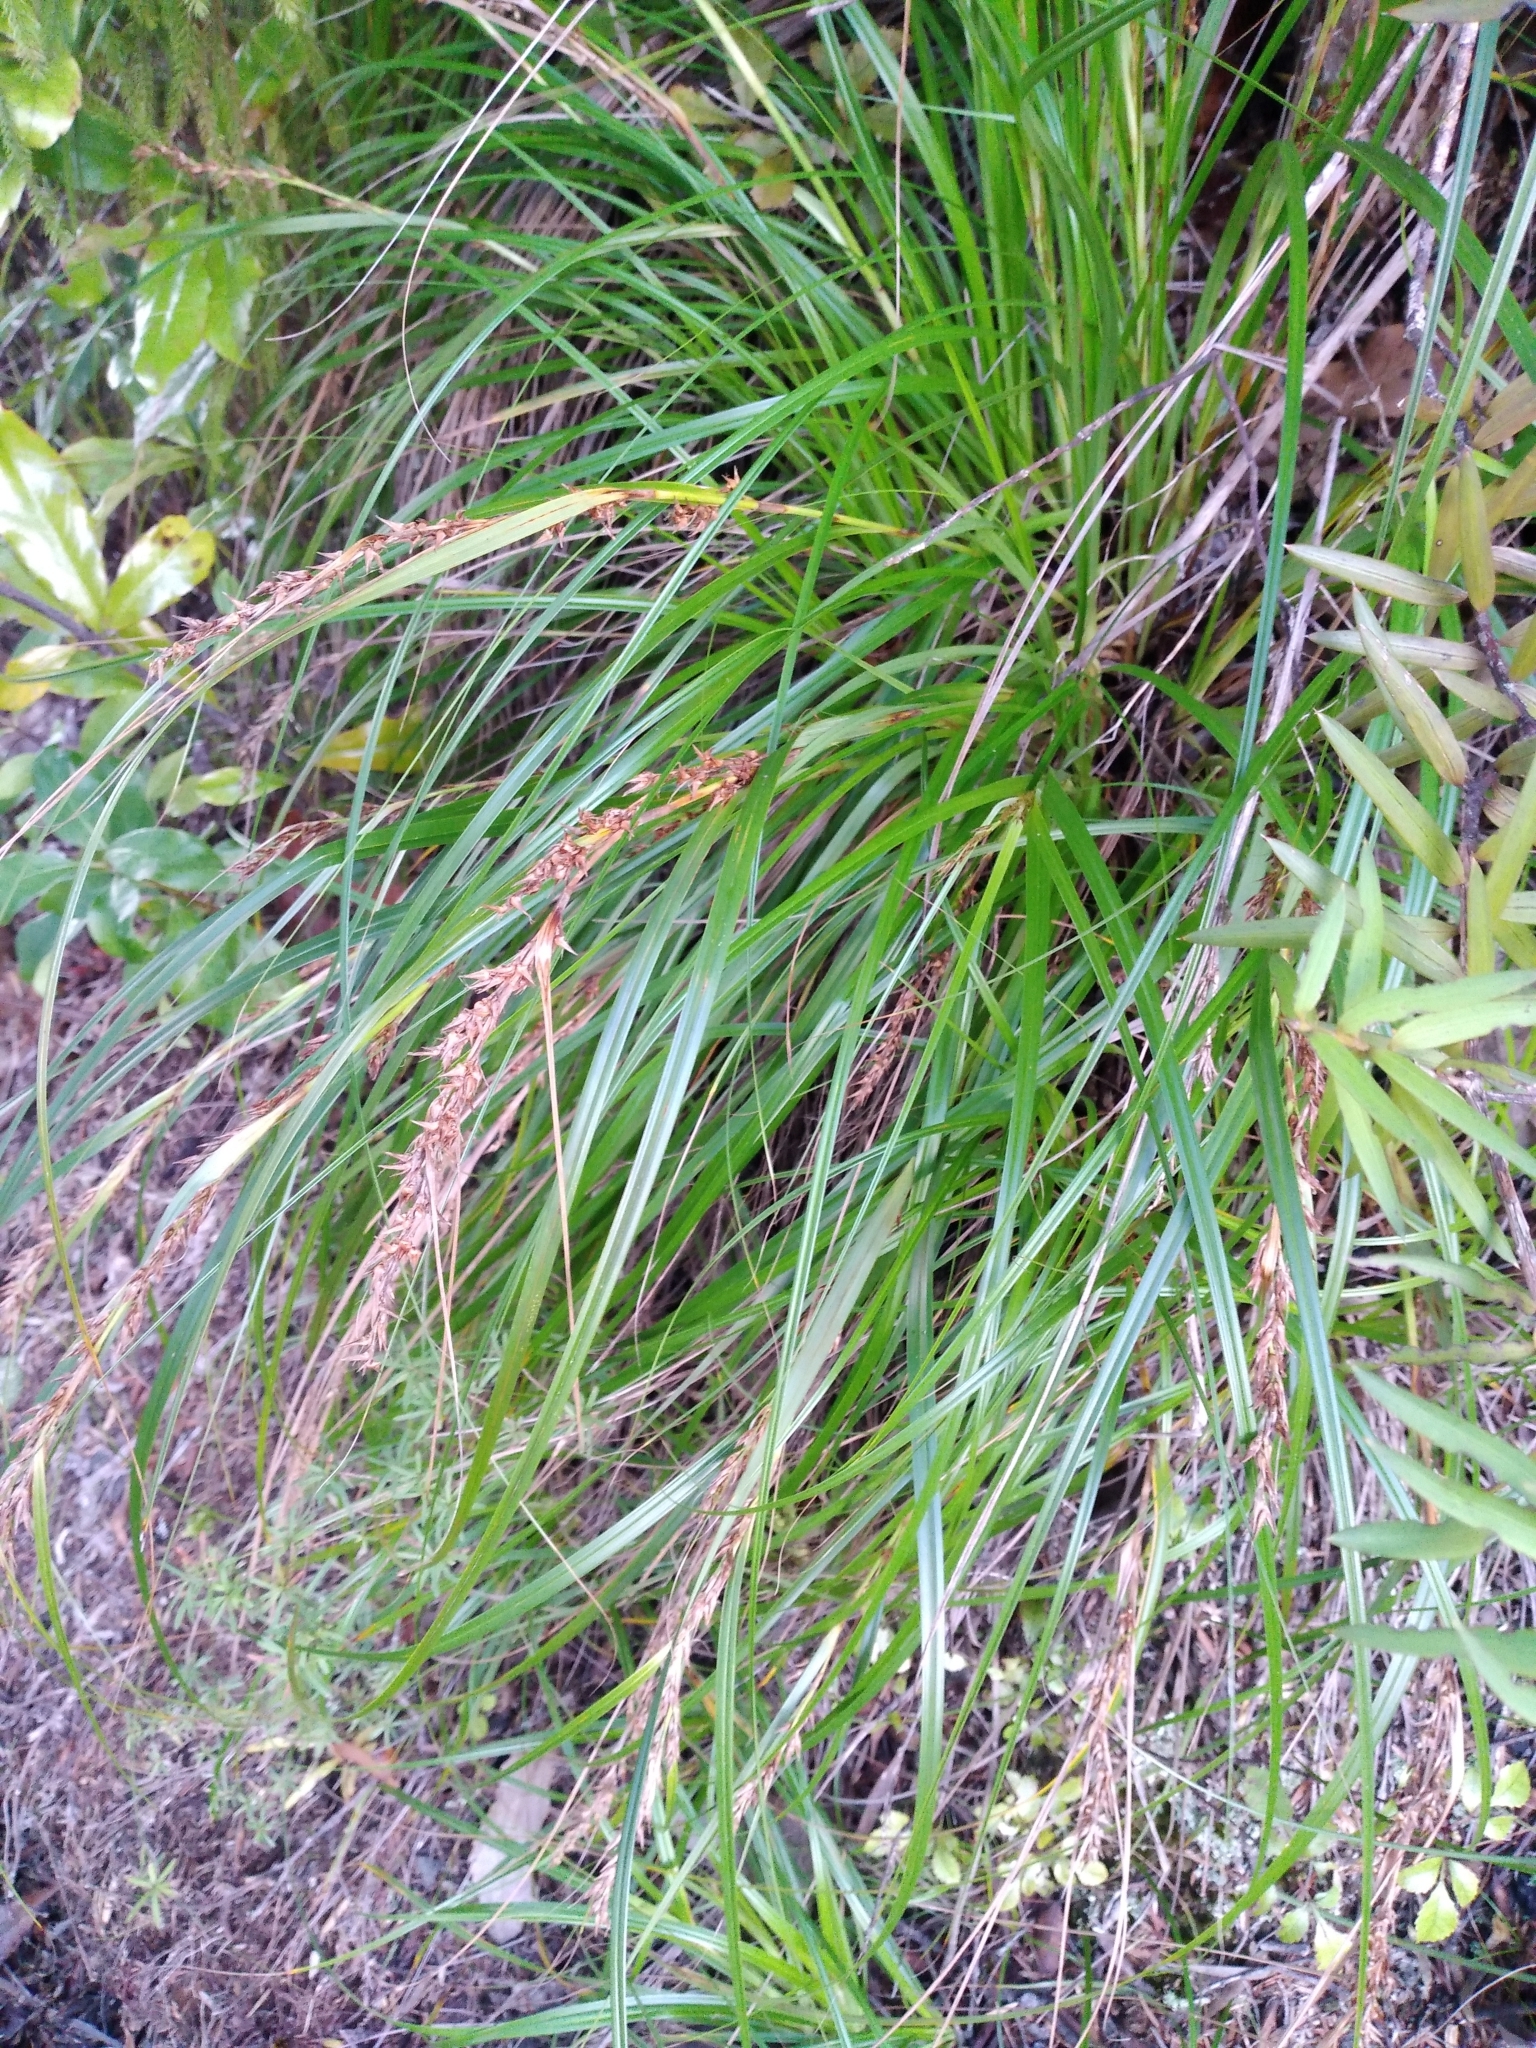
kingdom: Plantae
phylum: Tracheophyta
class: Liliopsida
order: Poales
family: Cyperaceae
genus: Morelotia
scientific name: Morelotia affinis
